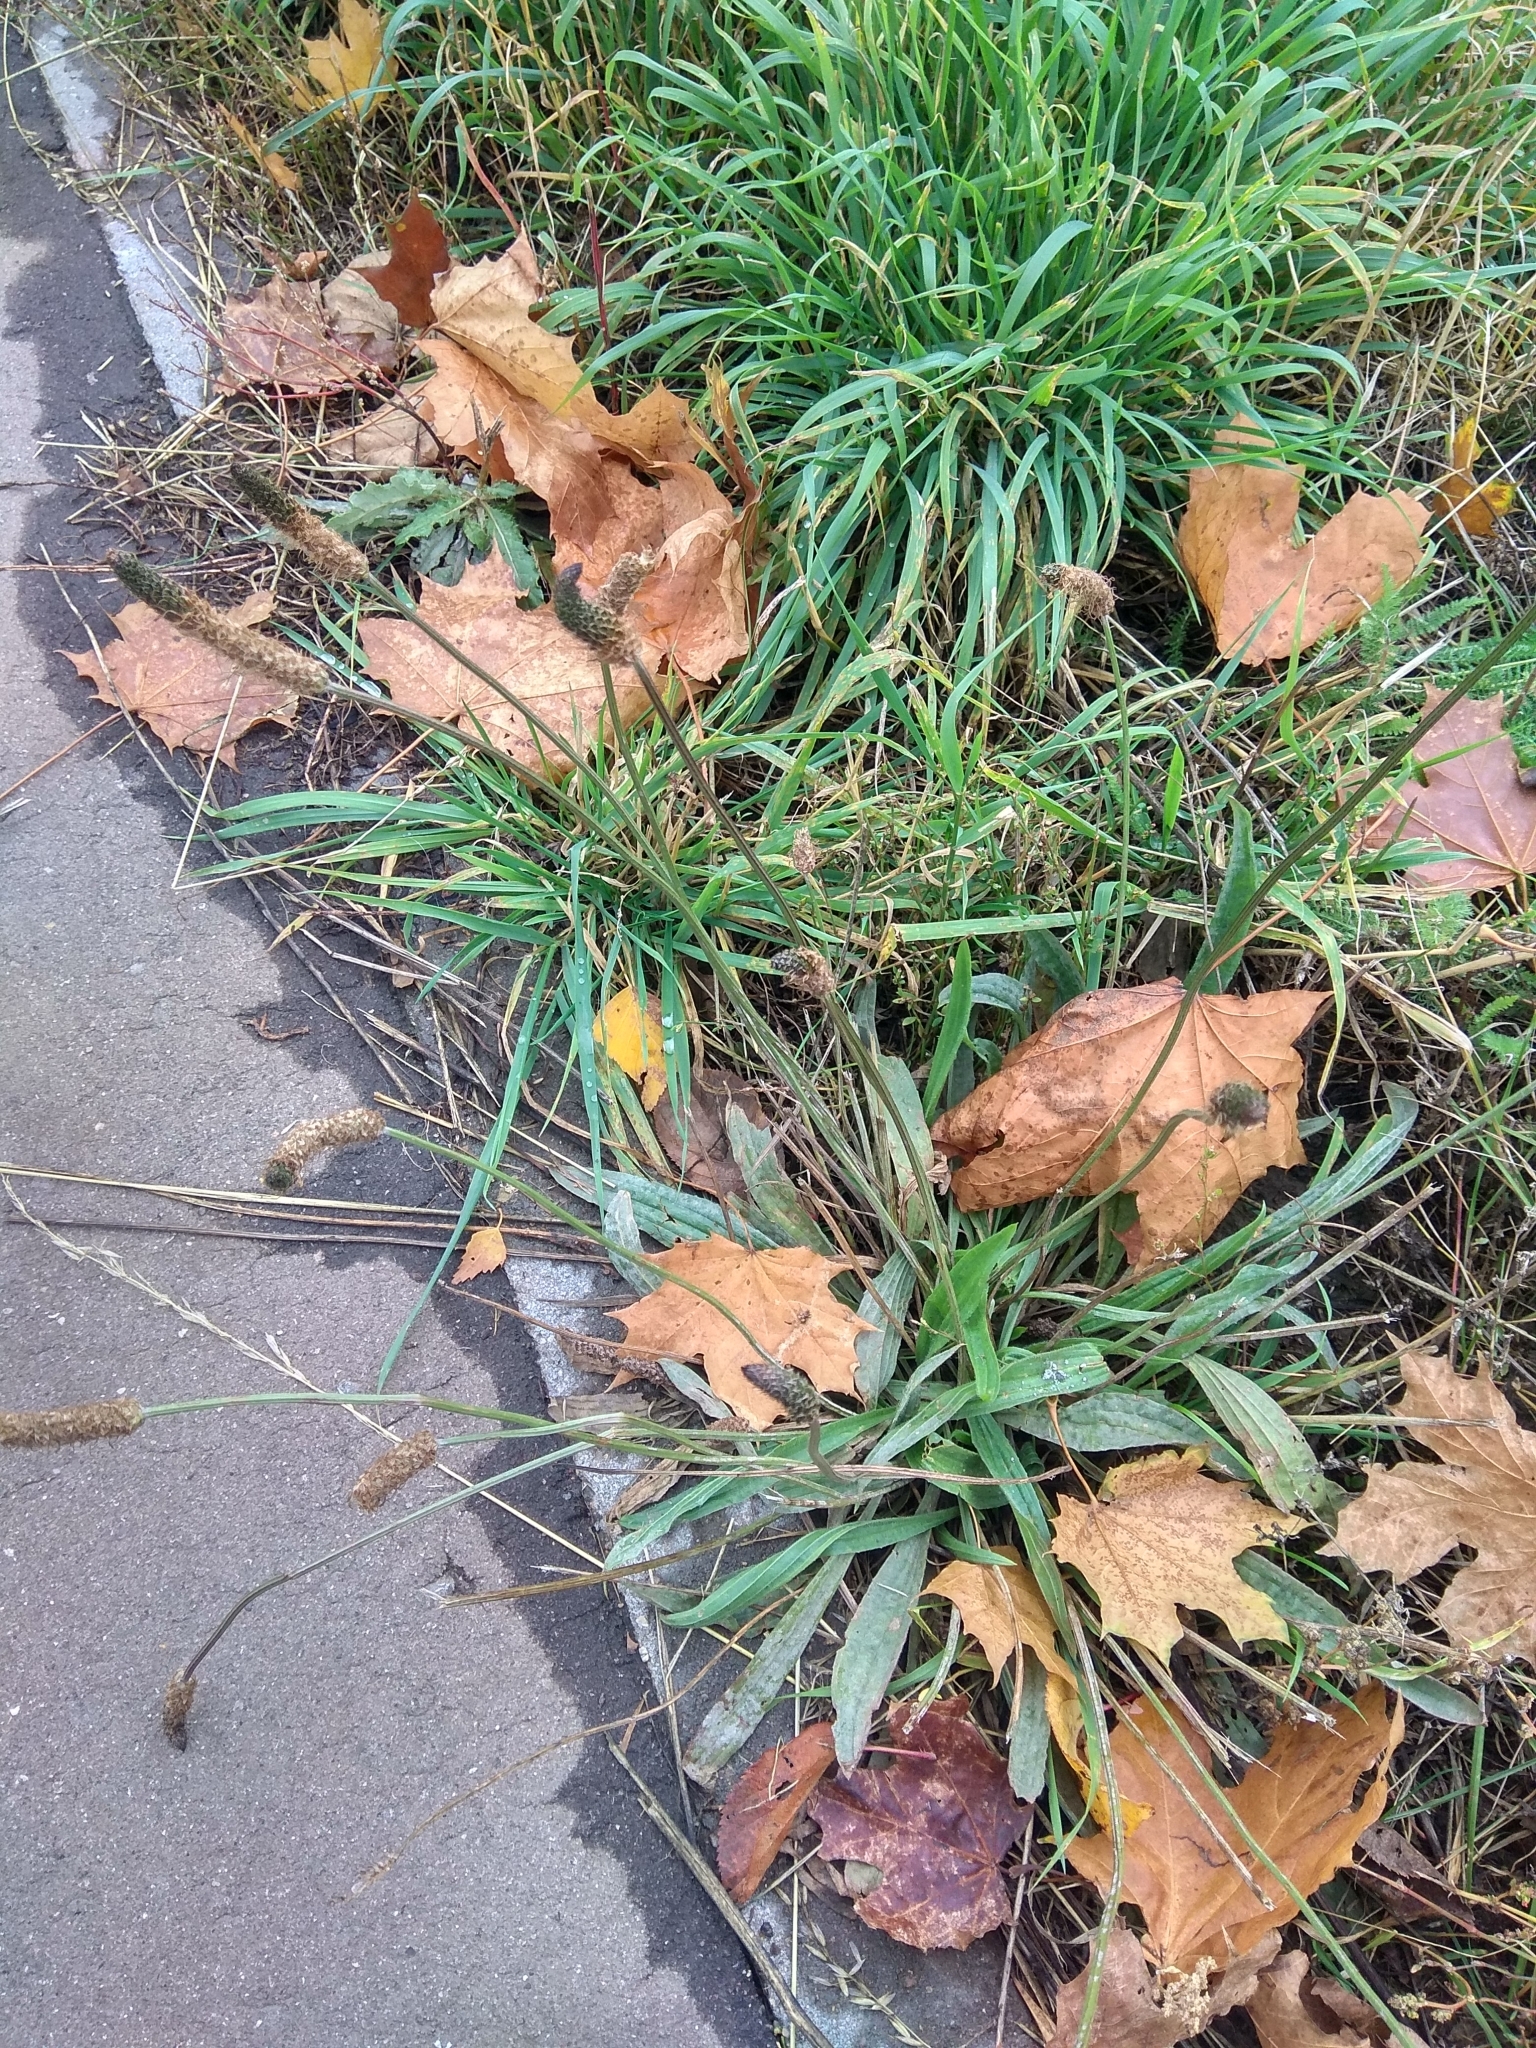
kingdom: Plantae
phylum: Tracheophyta
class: Magnoliopsida
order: Lamiales
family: Plantaginaceae
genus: Plantago
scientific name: Plantago lanceolata
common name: Ribwort plantain
